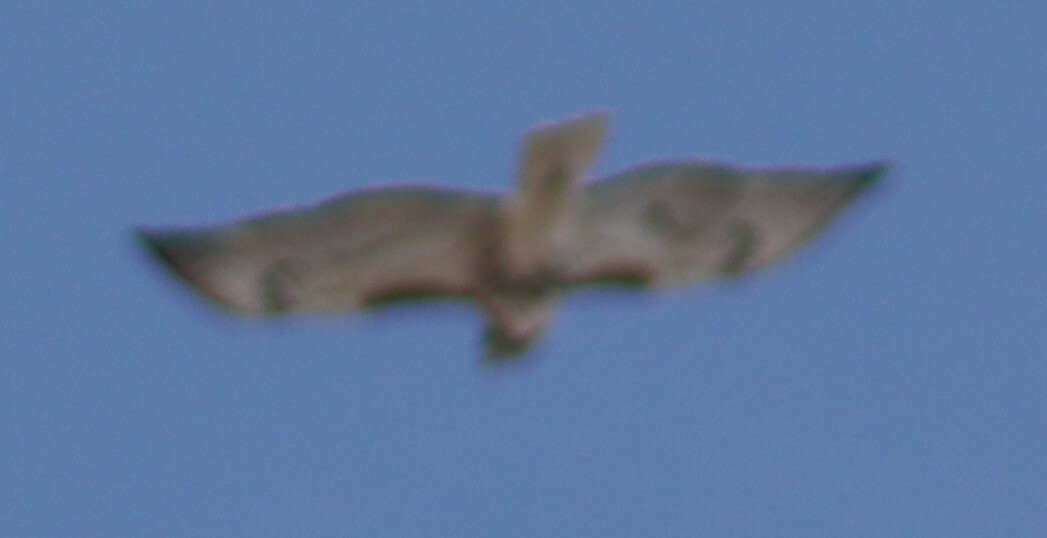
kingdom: Animalia
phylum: Chordata
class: Aves
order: Accipitriformes
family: Accipitridae
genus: Buteo
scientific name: Buteo jamaicensis
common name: Red-tailed hawk
